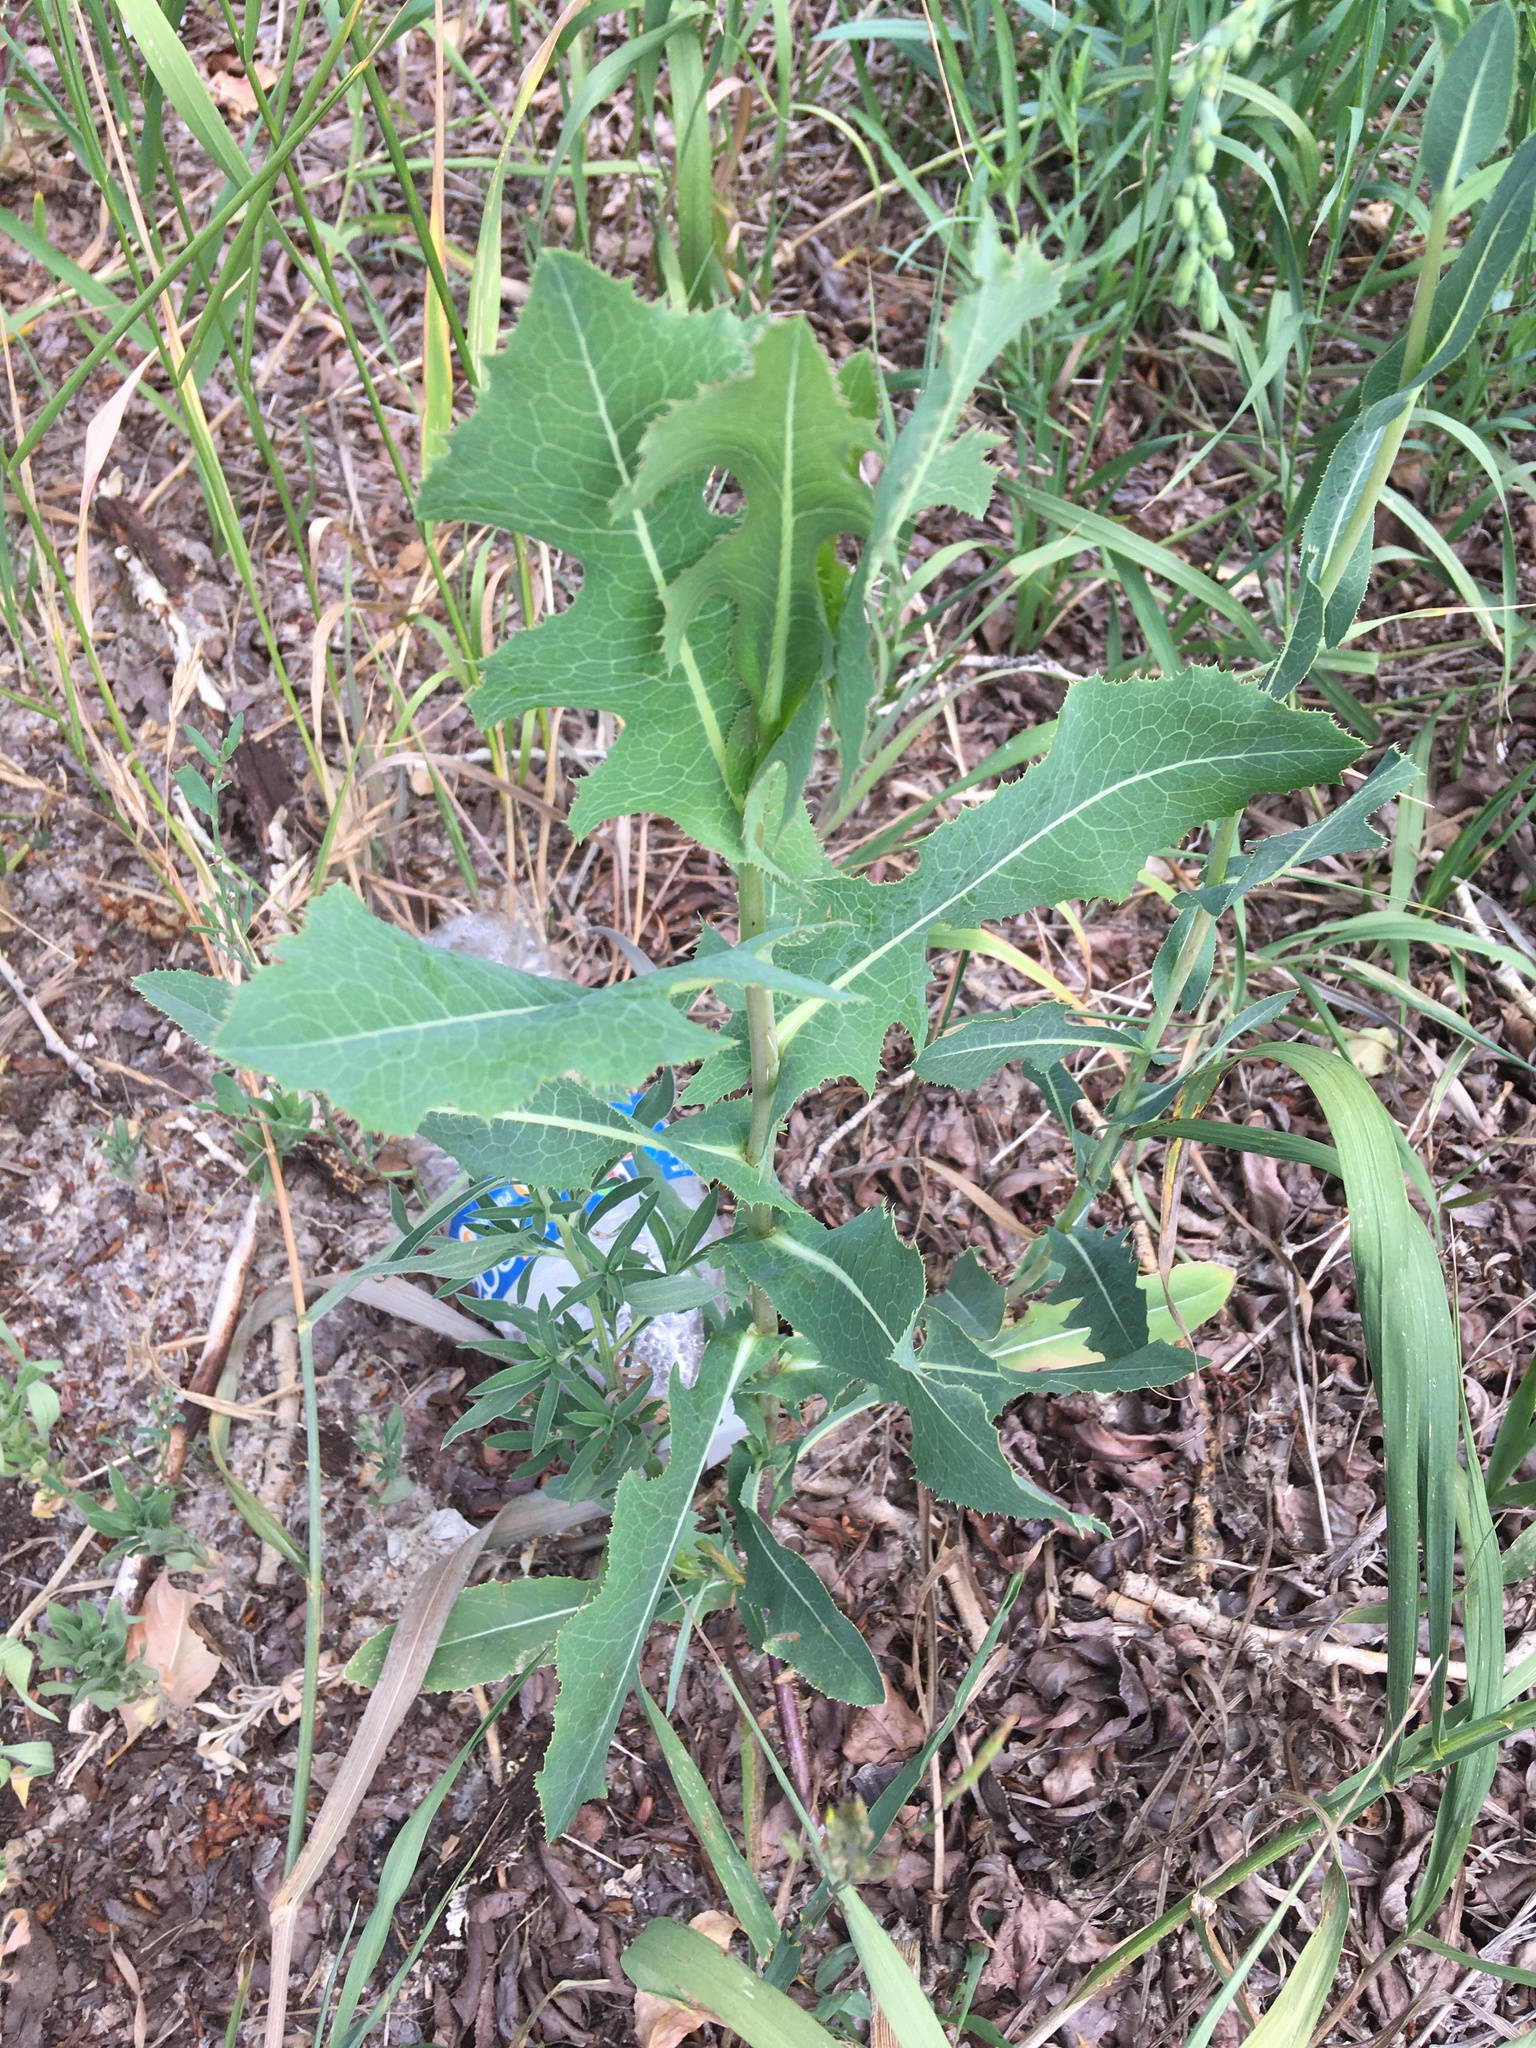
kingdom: Plantae
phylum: Tracheophyta
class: Magnoliopsida
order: Asterales
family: Asteraceae
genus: Lactuca
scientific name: Lactuca serriola
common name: Prickly lettuce
